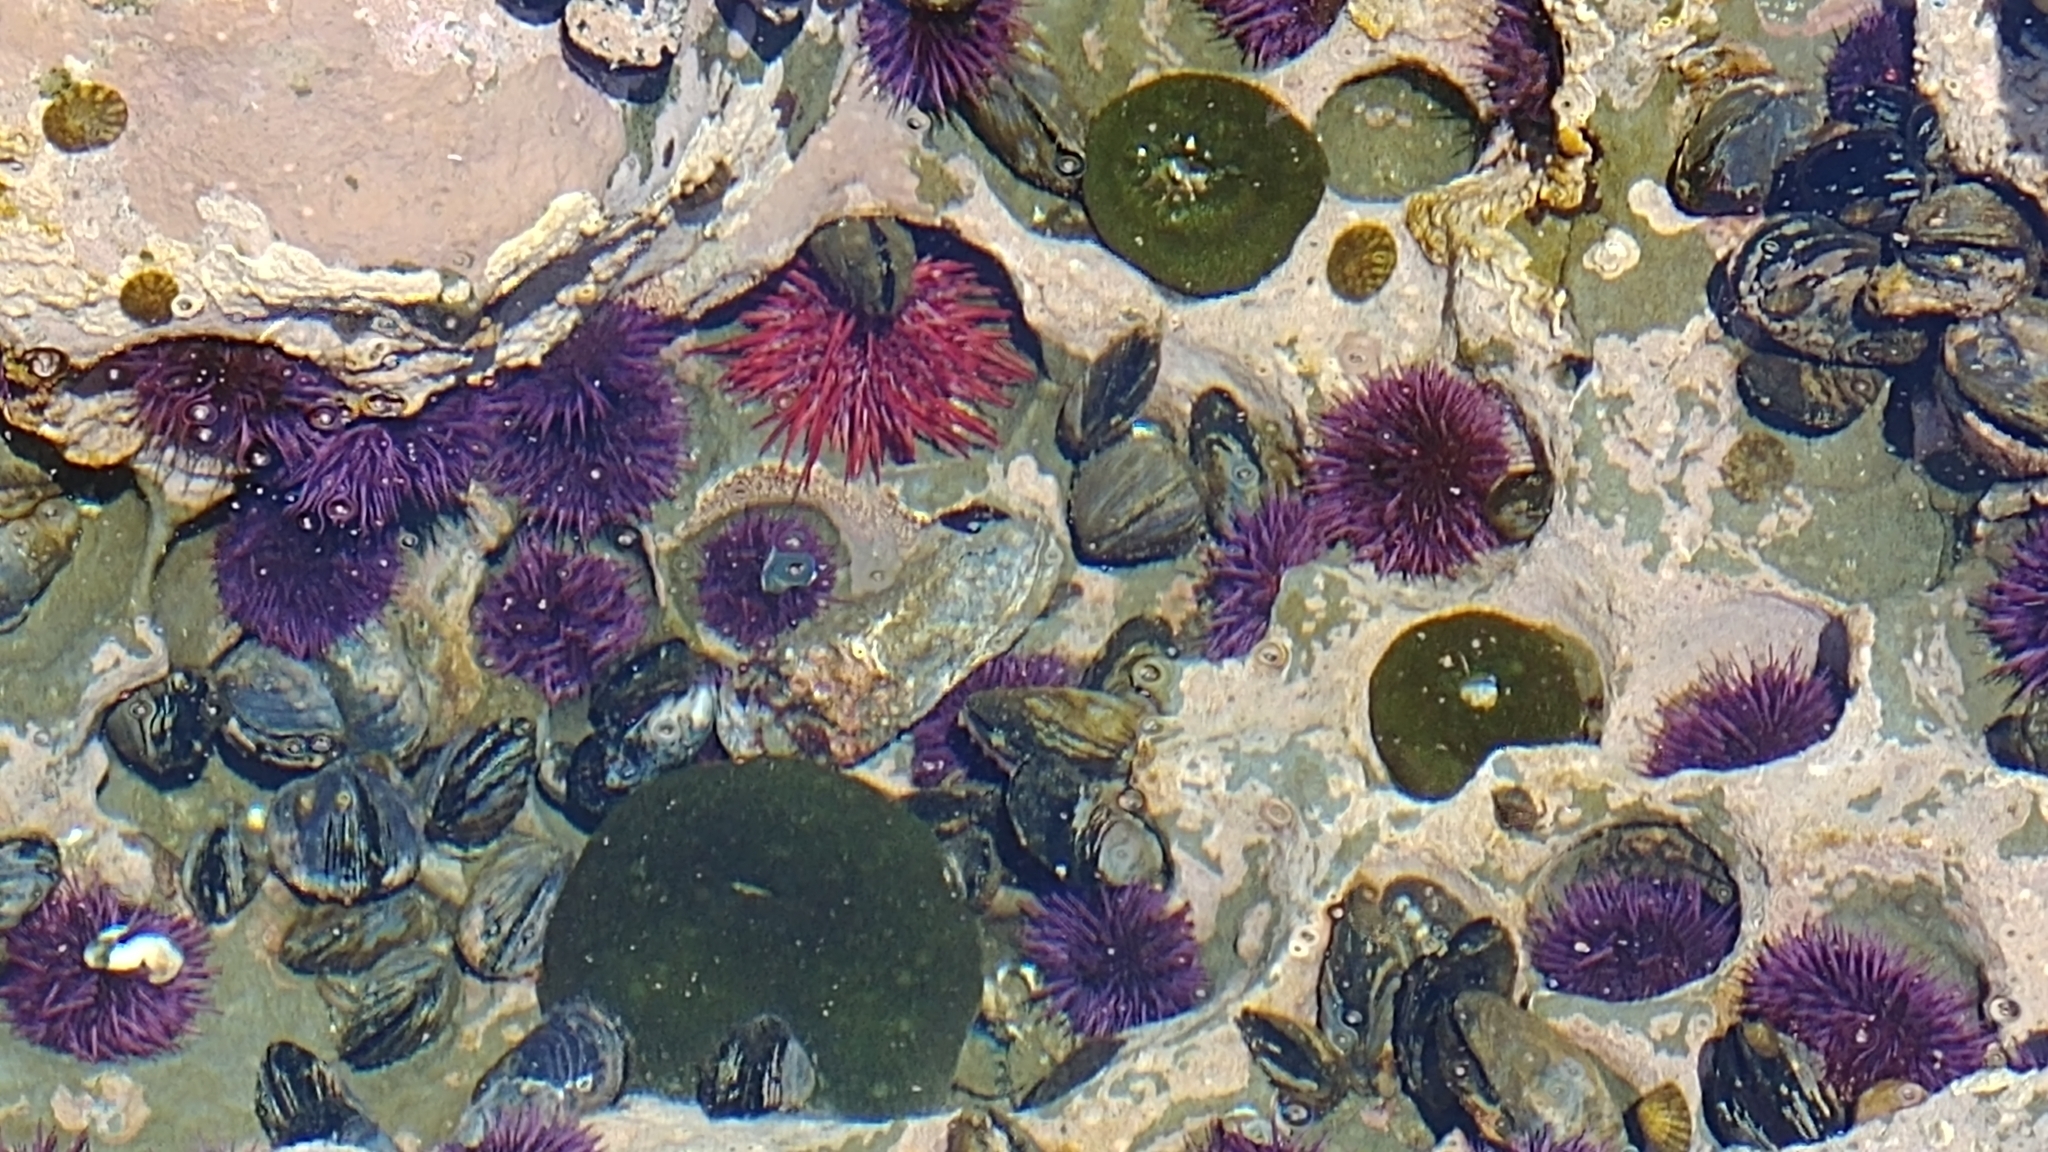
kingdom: Animalia
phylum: Echinodermata
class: Echinoidea
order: Camarodonta
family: Strongylocentrotidae
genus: Mesocentrotus
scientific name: Mesocentrotus franciscanus
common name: Red sea urchin
